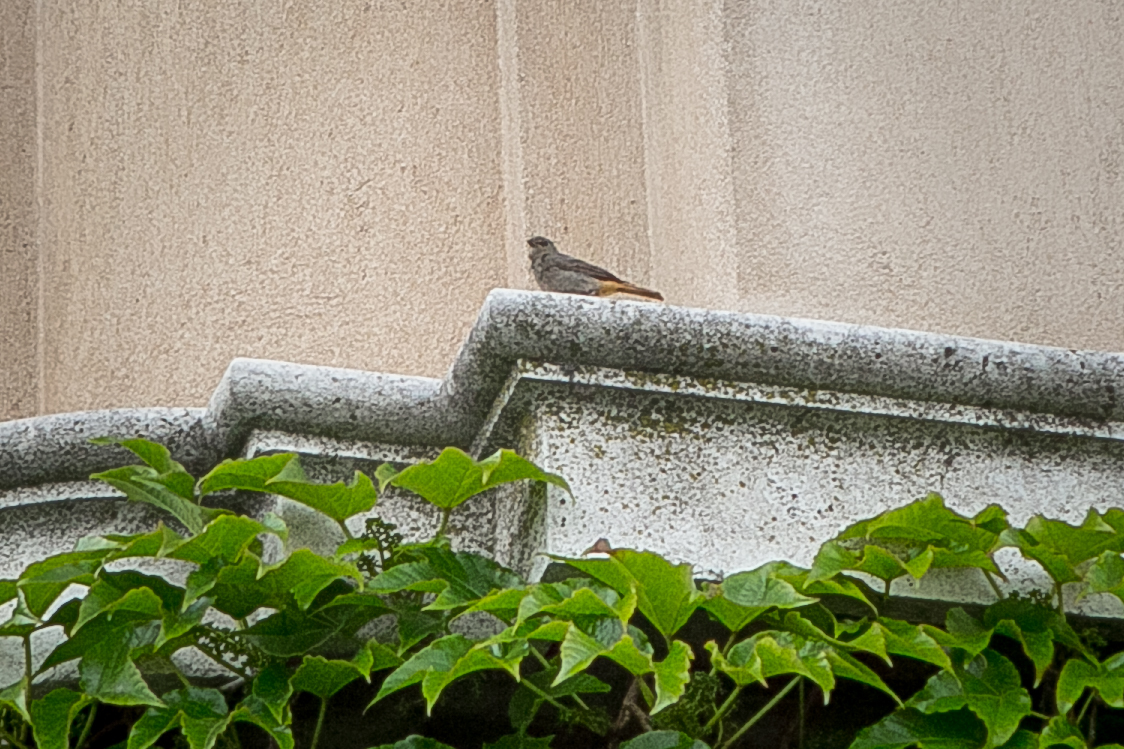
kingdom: Animalia
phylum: Chordata
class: Aves
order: Passeriformes
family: Muscicapidae
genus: Phoenicurus
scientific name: Phoenicurus ochruros
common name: Black redstart
